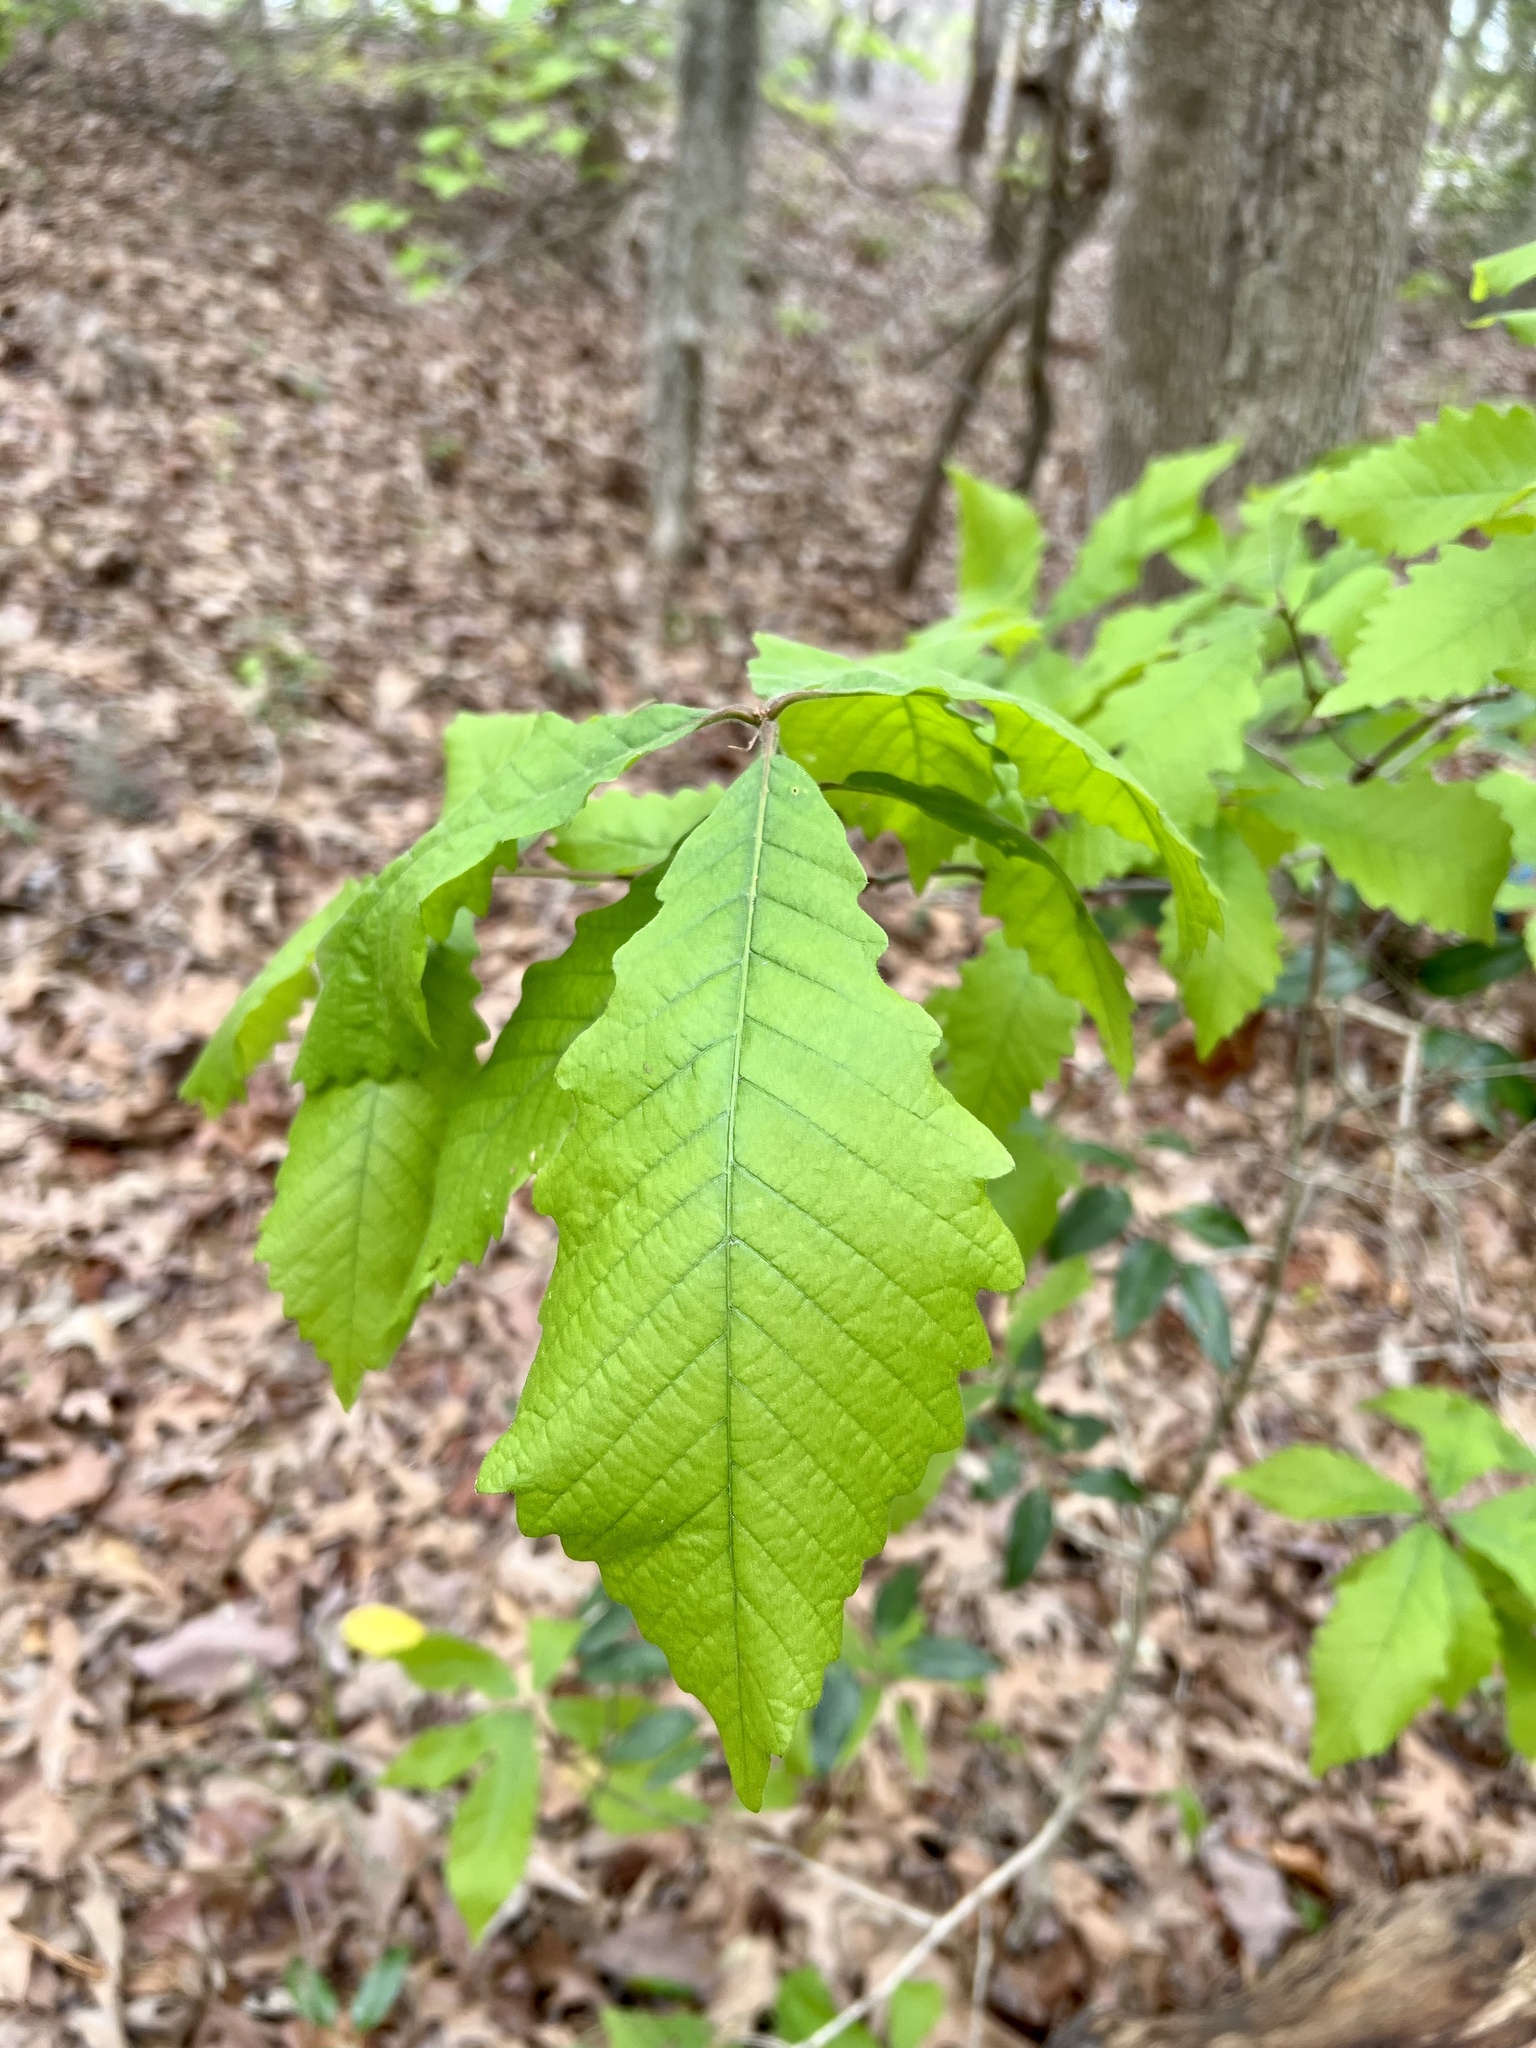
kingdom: Plantae
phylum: Tracheophyta
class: Magnoliopsida
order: Fagales
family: Fagaceae
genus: Quercus
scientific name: Quercus michauxii
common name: Swamp chestnut oak
